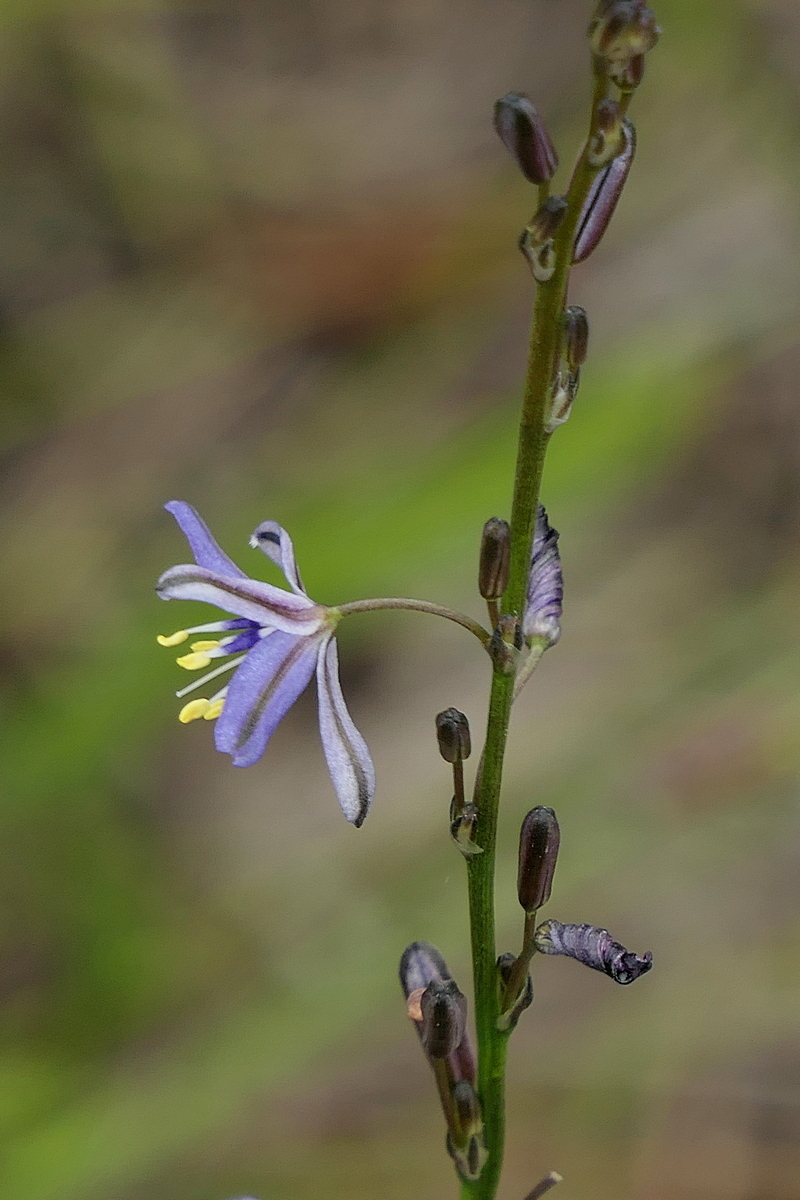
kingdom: Plantae
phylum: Tracheophyta
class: Liliopsida
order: Asparagales
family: Asphodelaceae
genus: Caesia
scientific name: Caesia parviflora
